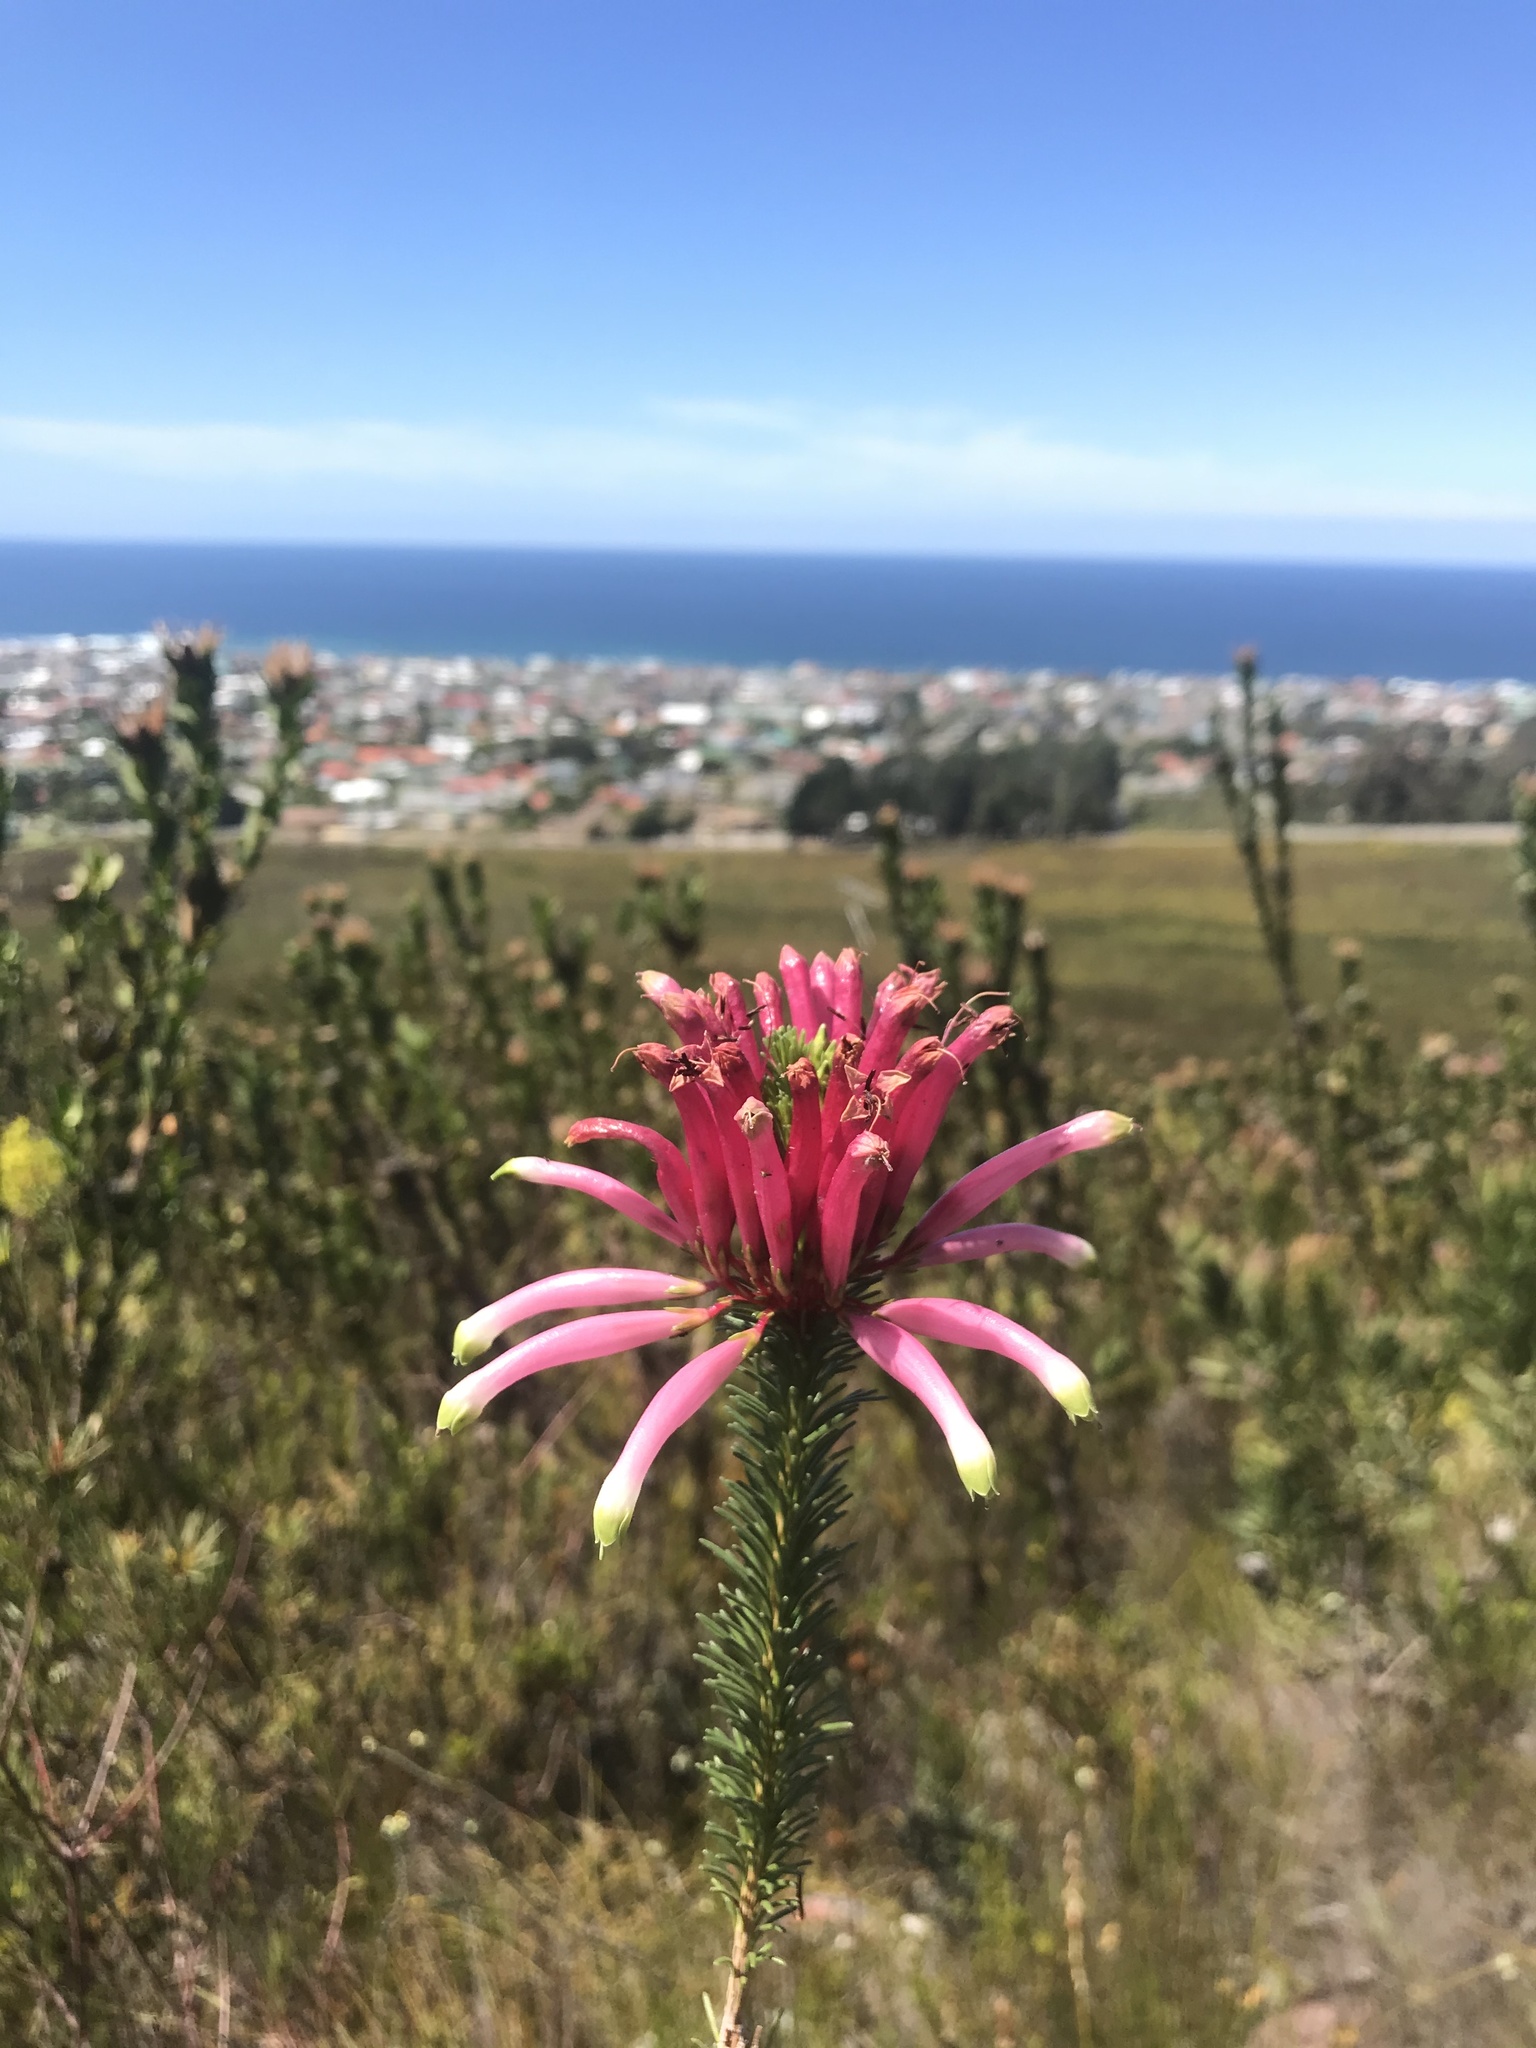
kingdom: Plantae
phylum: Tracheophyta
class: Magnoliopsida
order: Ericales
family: Ericaceae
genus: Erica
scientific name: Erica fascicularis
